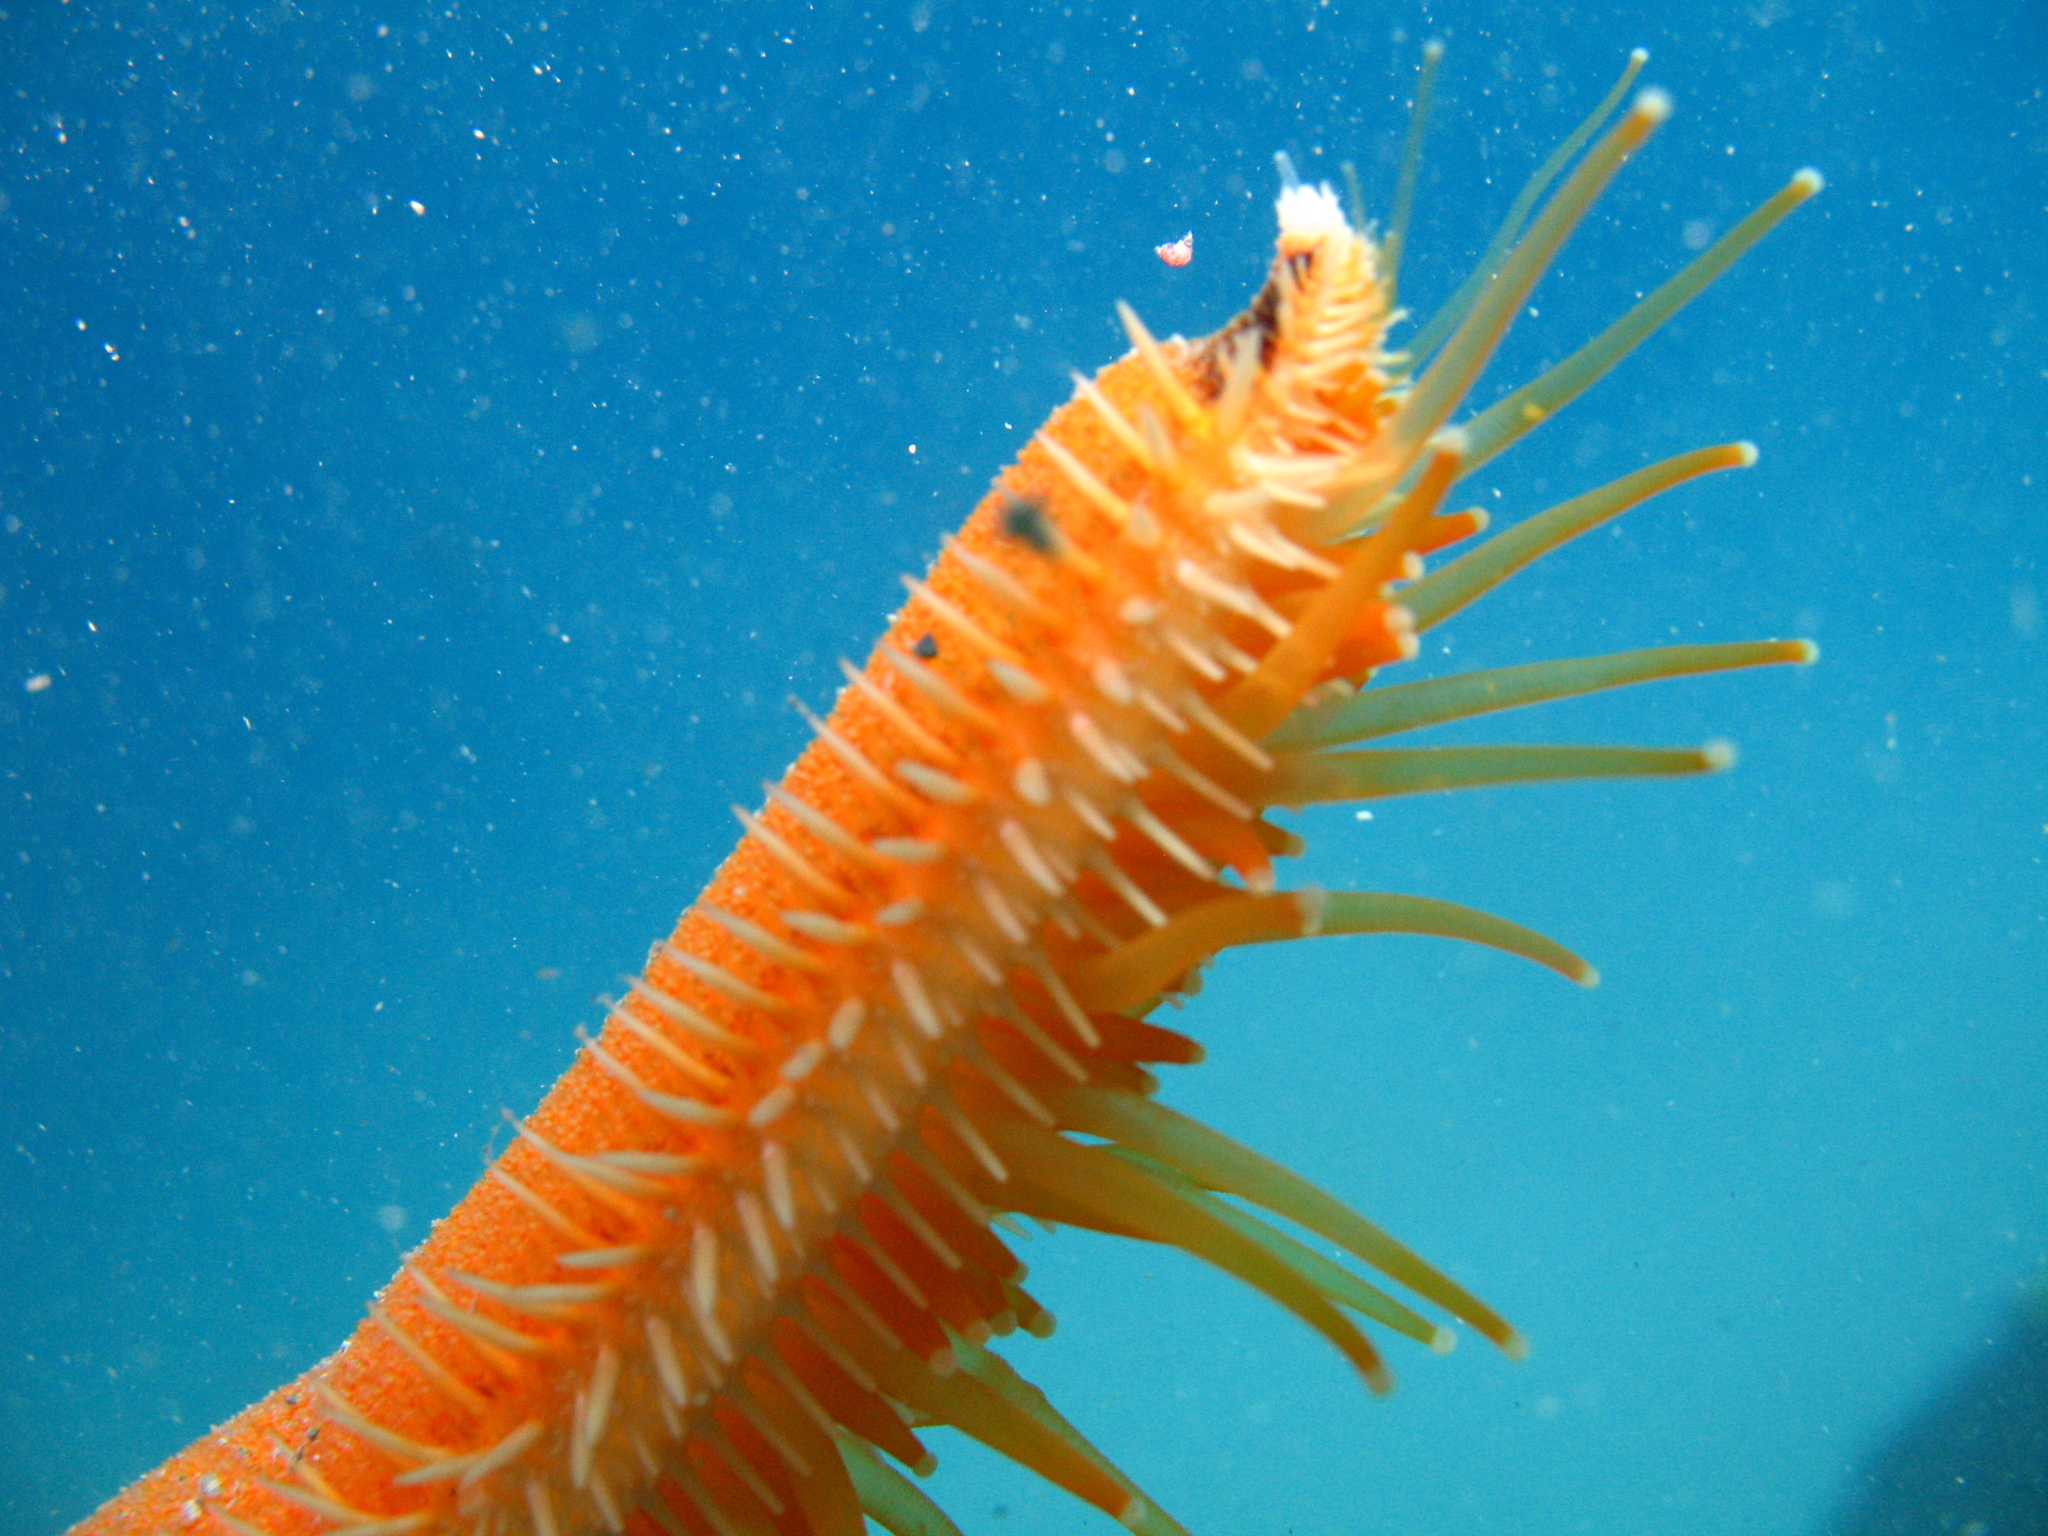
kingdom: Animalia
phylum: Echinodermata
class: Asteroidea
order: Paxillosida
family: Luidiidae
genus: Luidia
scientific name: Luidia ciliaris
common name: Seven-armed starfish
